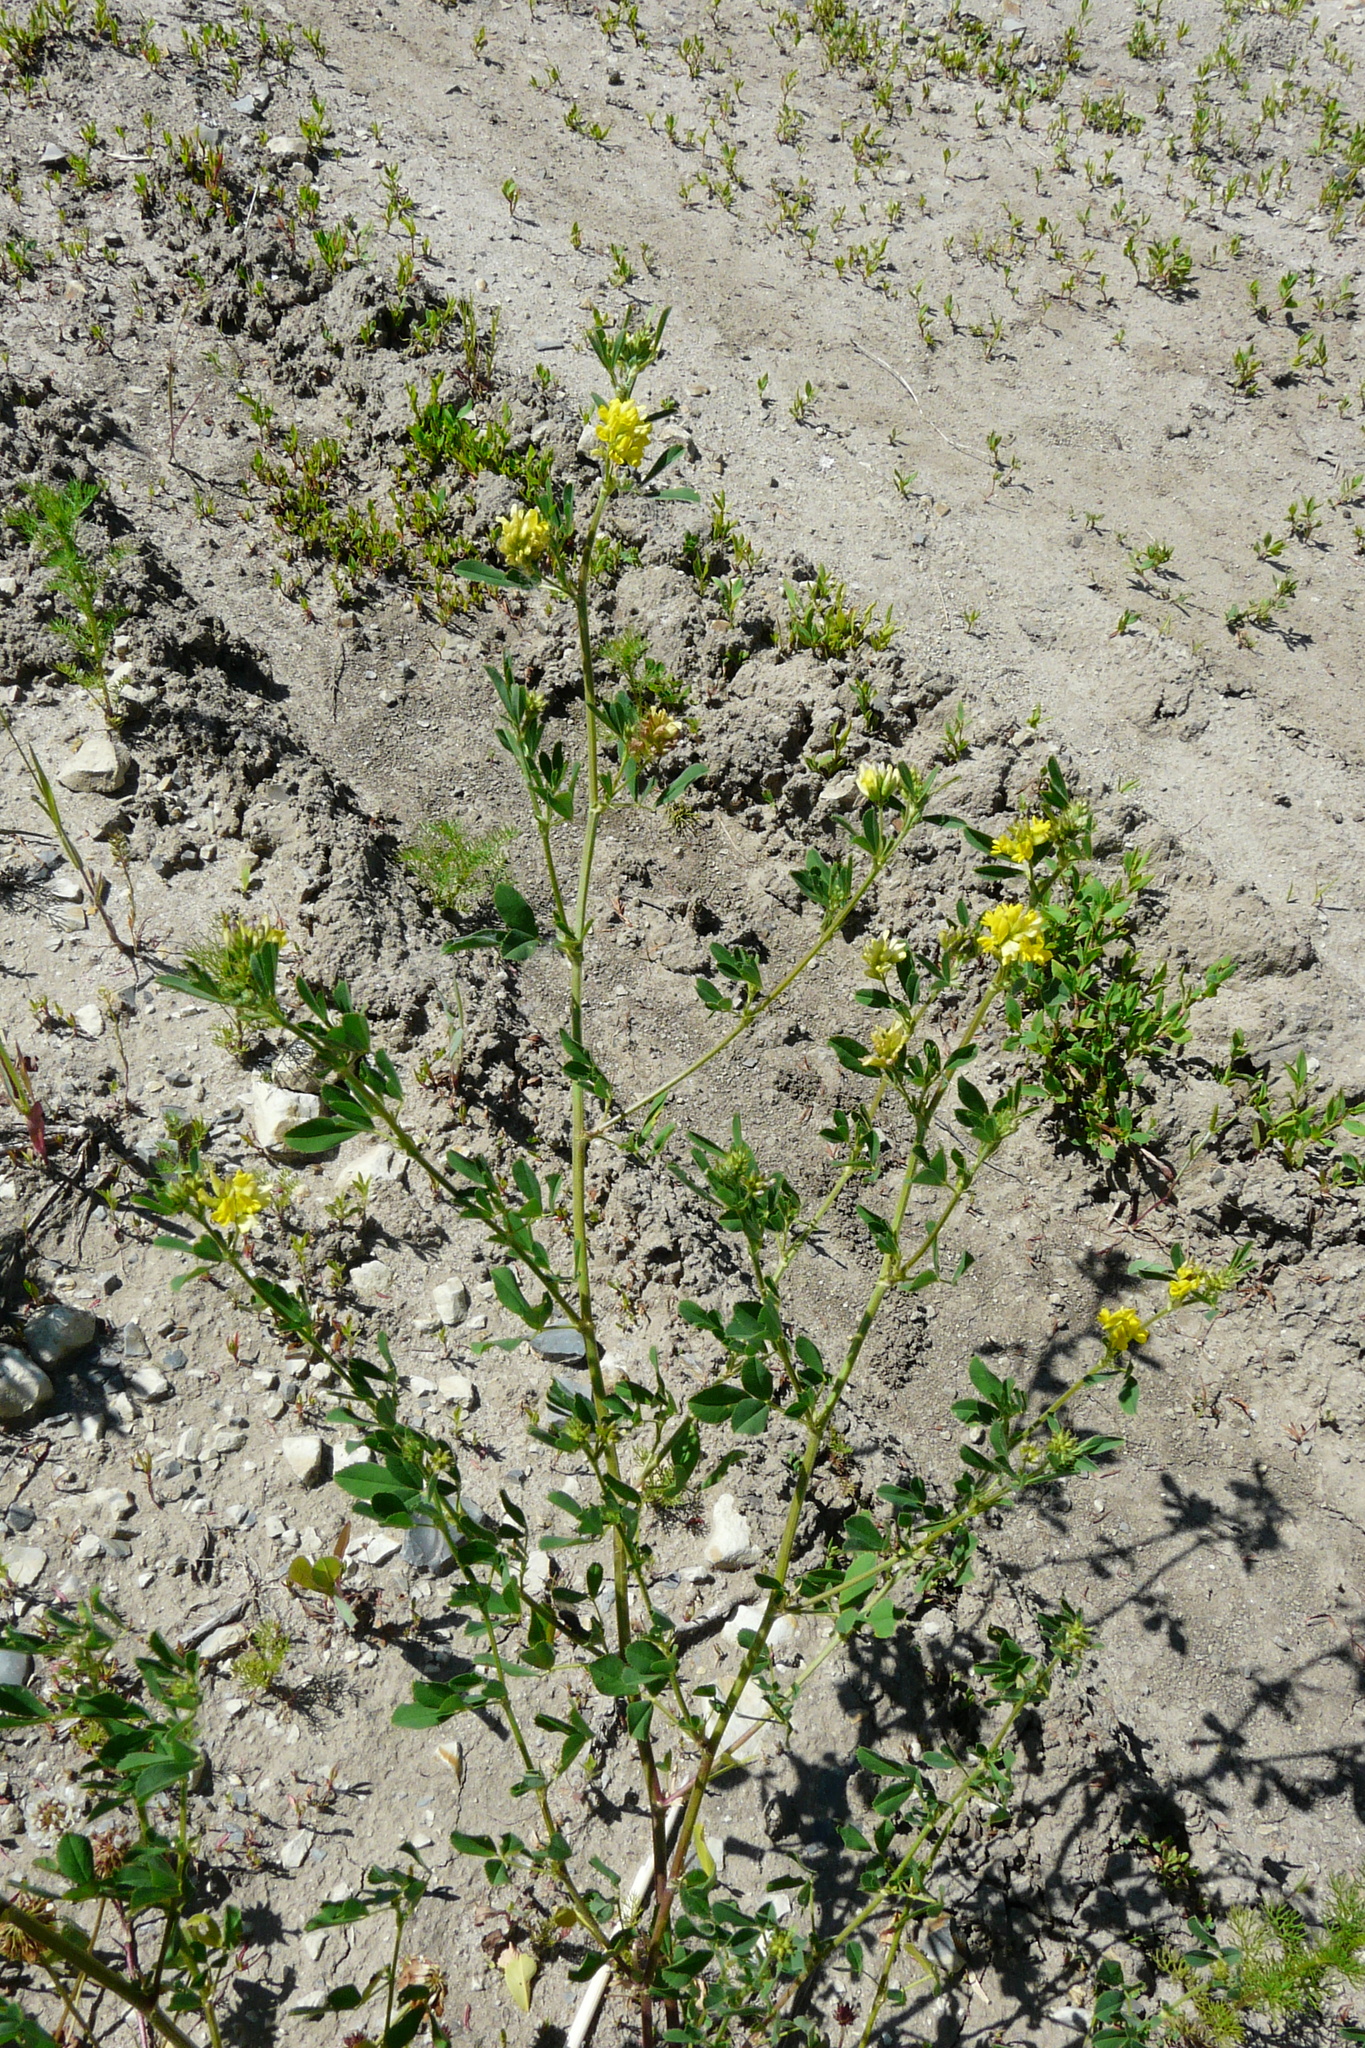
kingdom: Plantae
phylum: Tracheophyta
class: Magnoliopsida
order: Fabales
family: Fabaceae
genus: Medicago
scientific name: Medicago falcata
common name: Sickle medick
